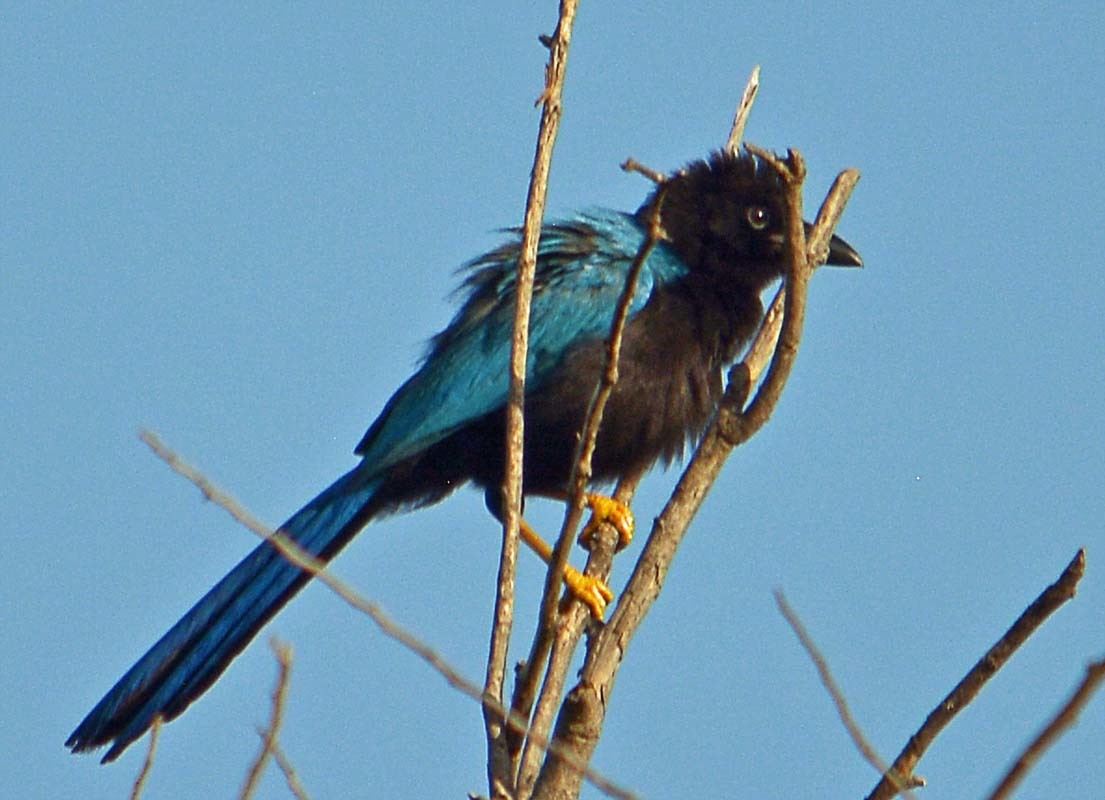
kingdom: Animalia
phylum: Chordata
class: Aves
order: Passeriformes
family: Corvidae
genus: Cyanocorax
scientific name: Cyanocorax yucatanicus
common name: Yucatan jay
